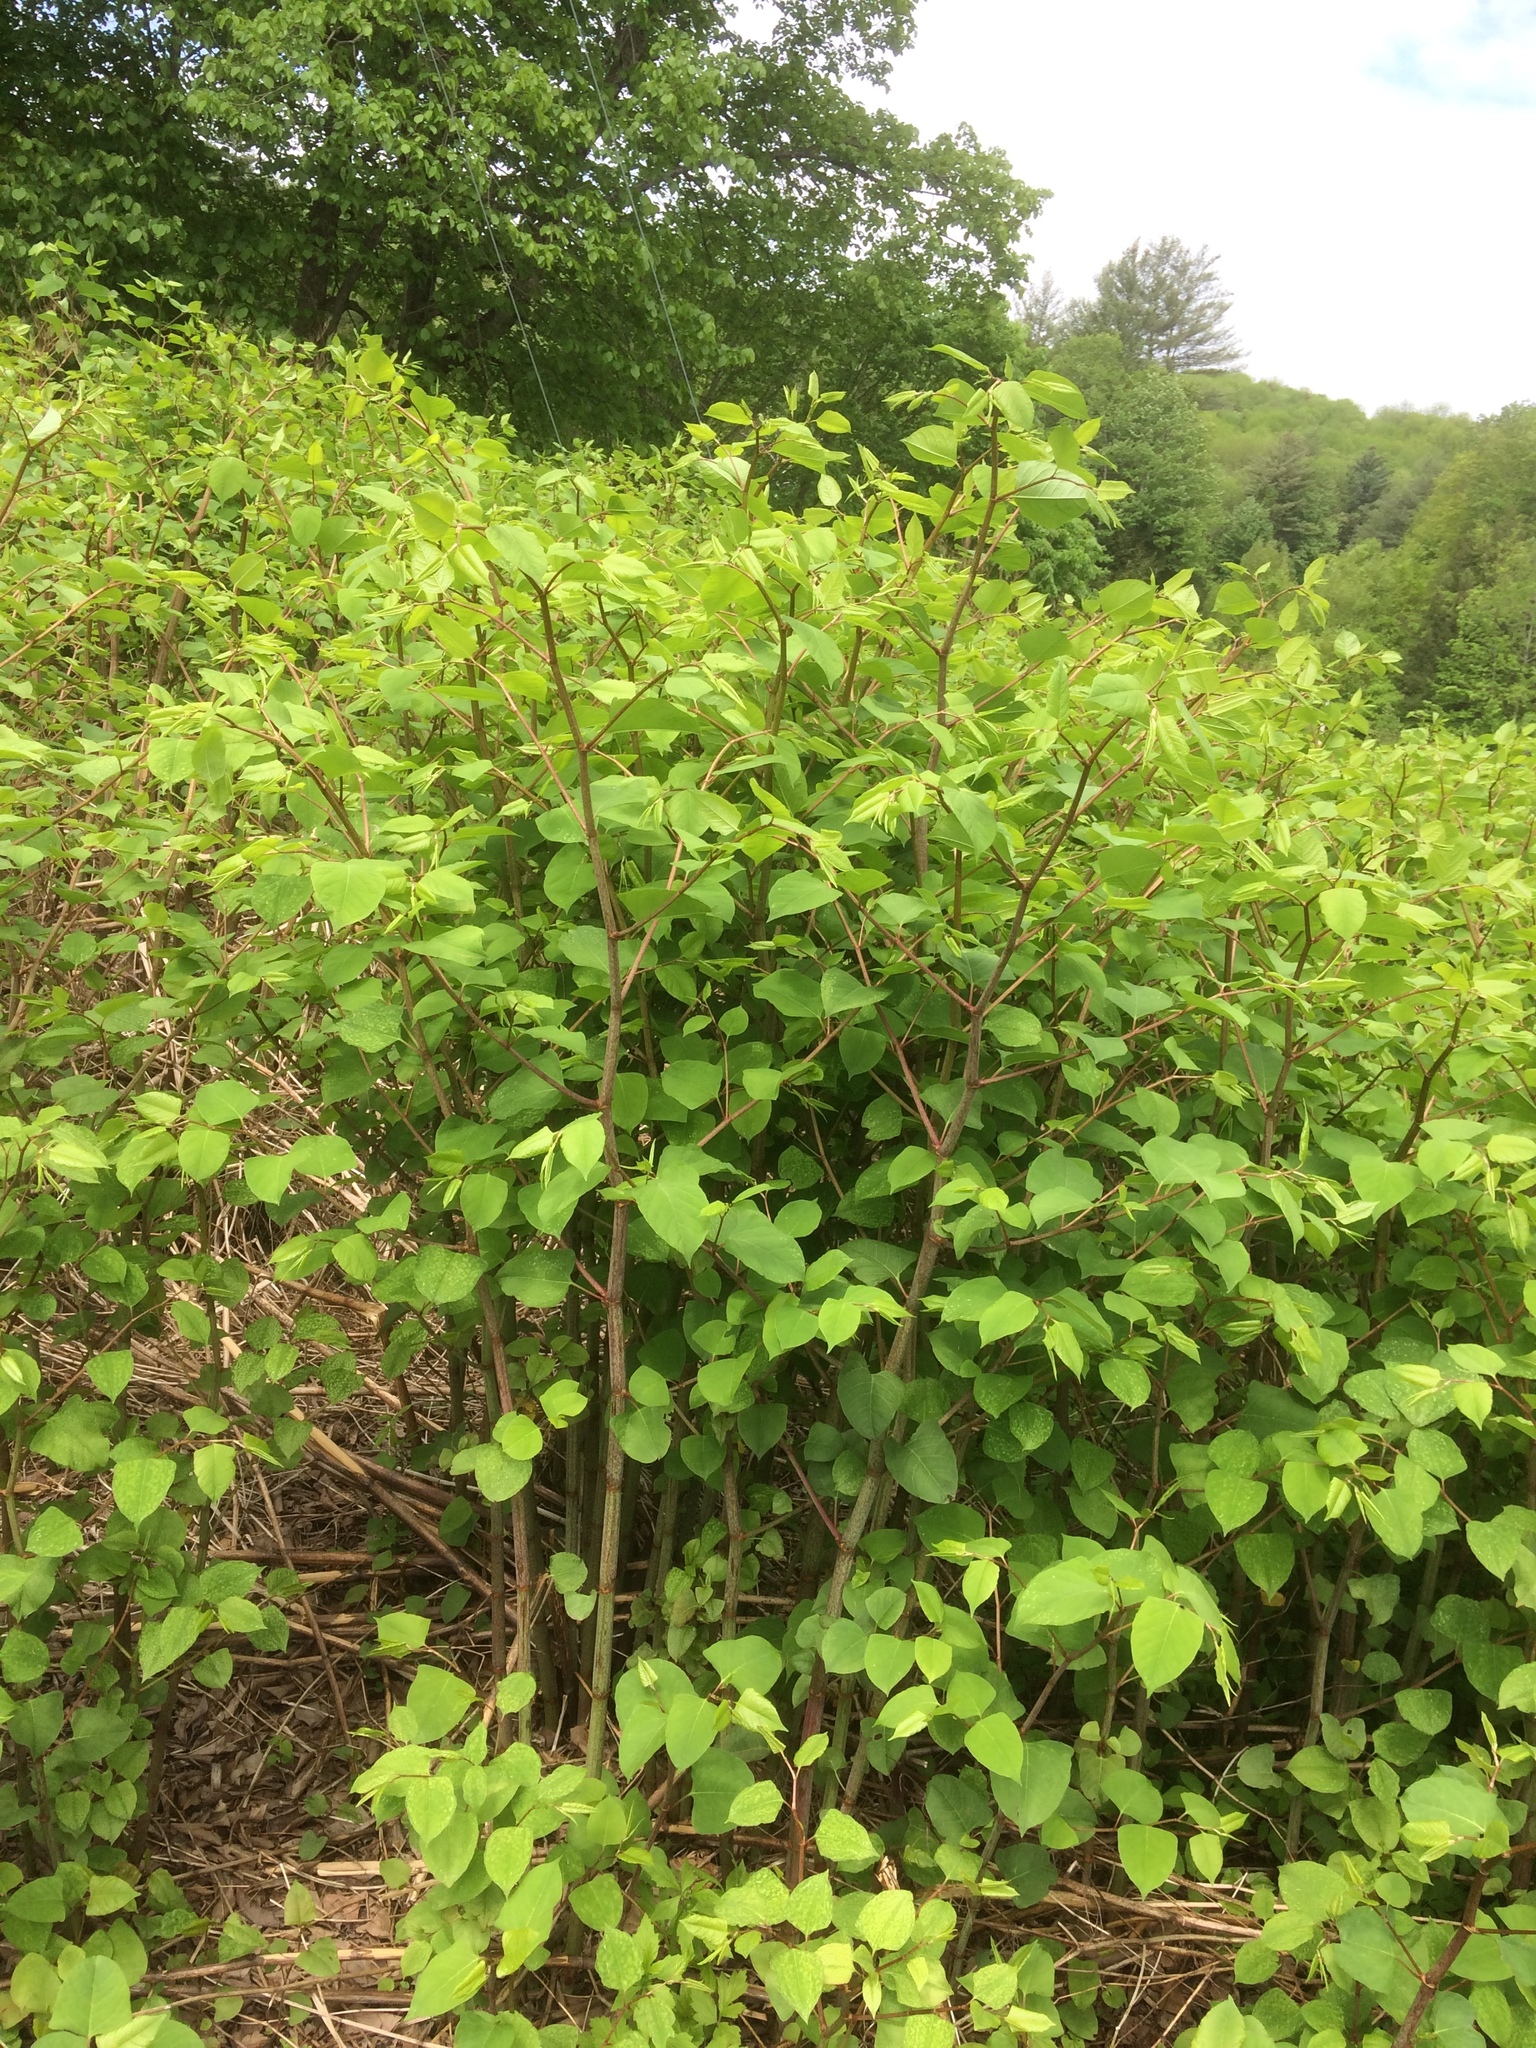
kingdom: Plantae
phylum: Tracheophyta
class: Magnoliopsida
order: Caryophyllales
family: Polygonaceae
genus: Reynoutria
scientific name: Reynoutria japonica
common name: Japanese knotweed
